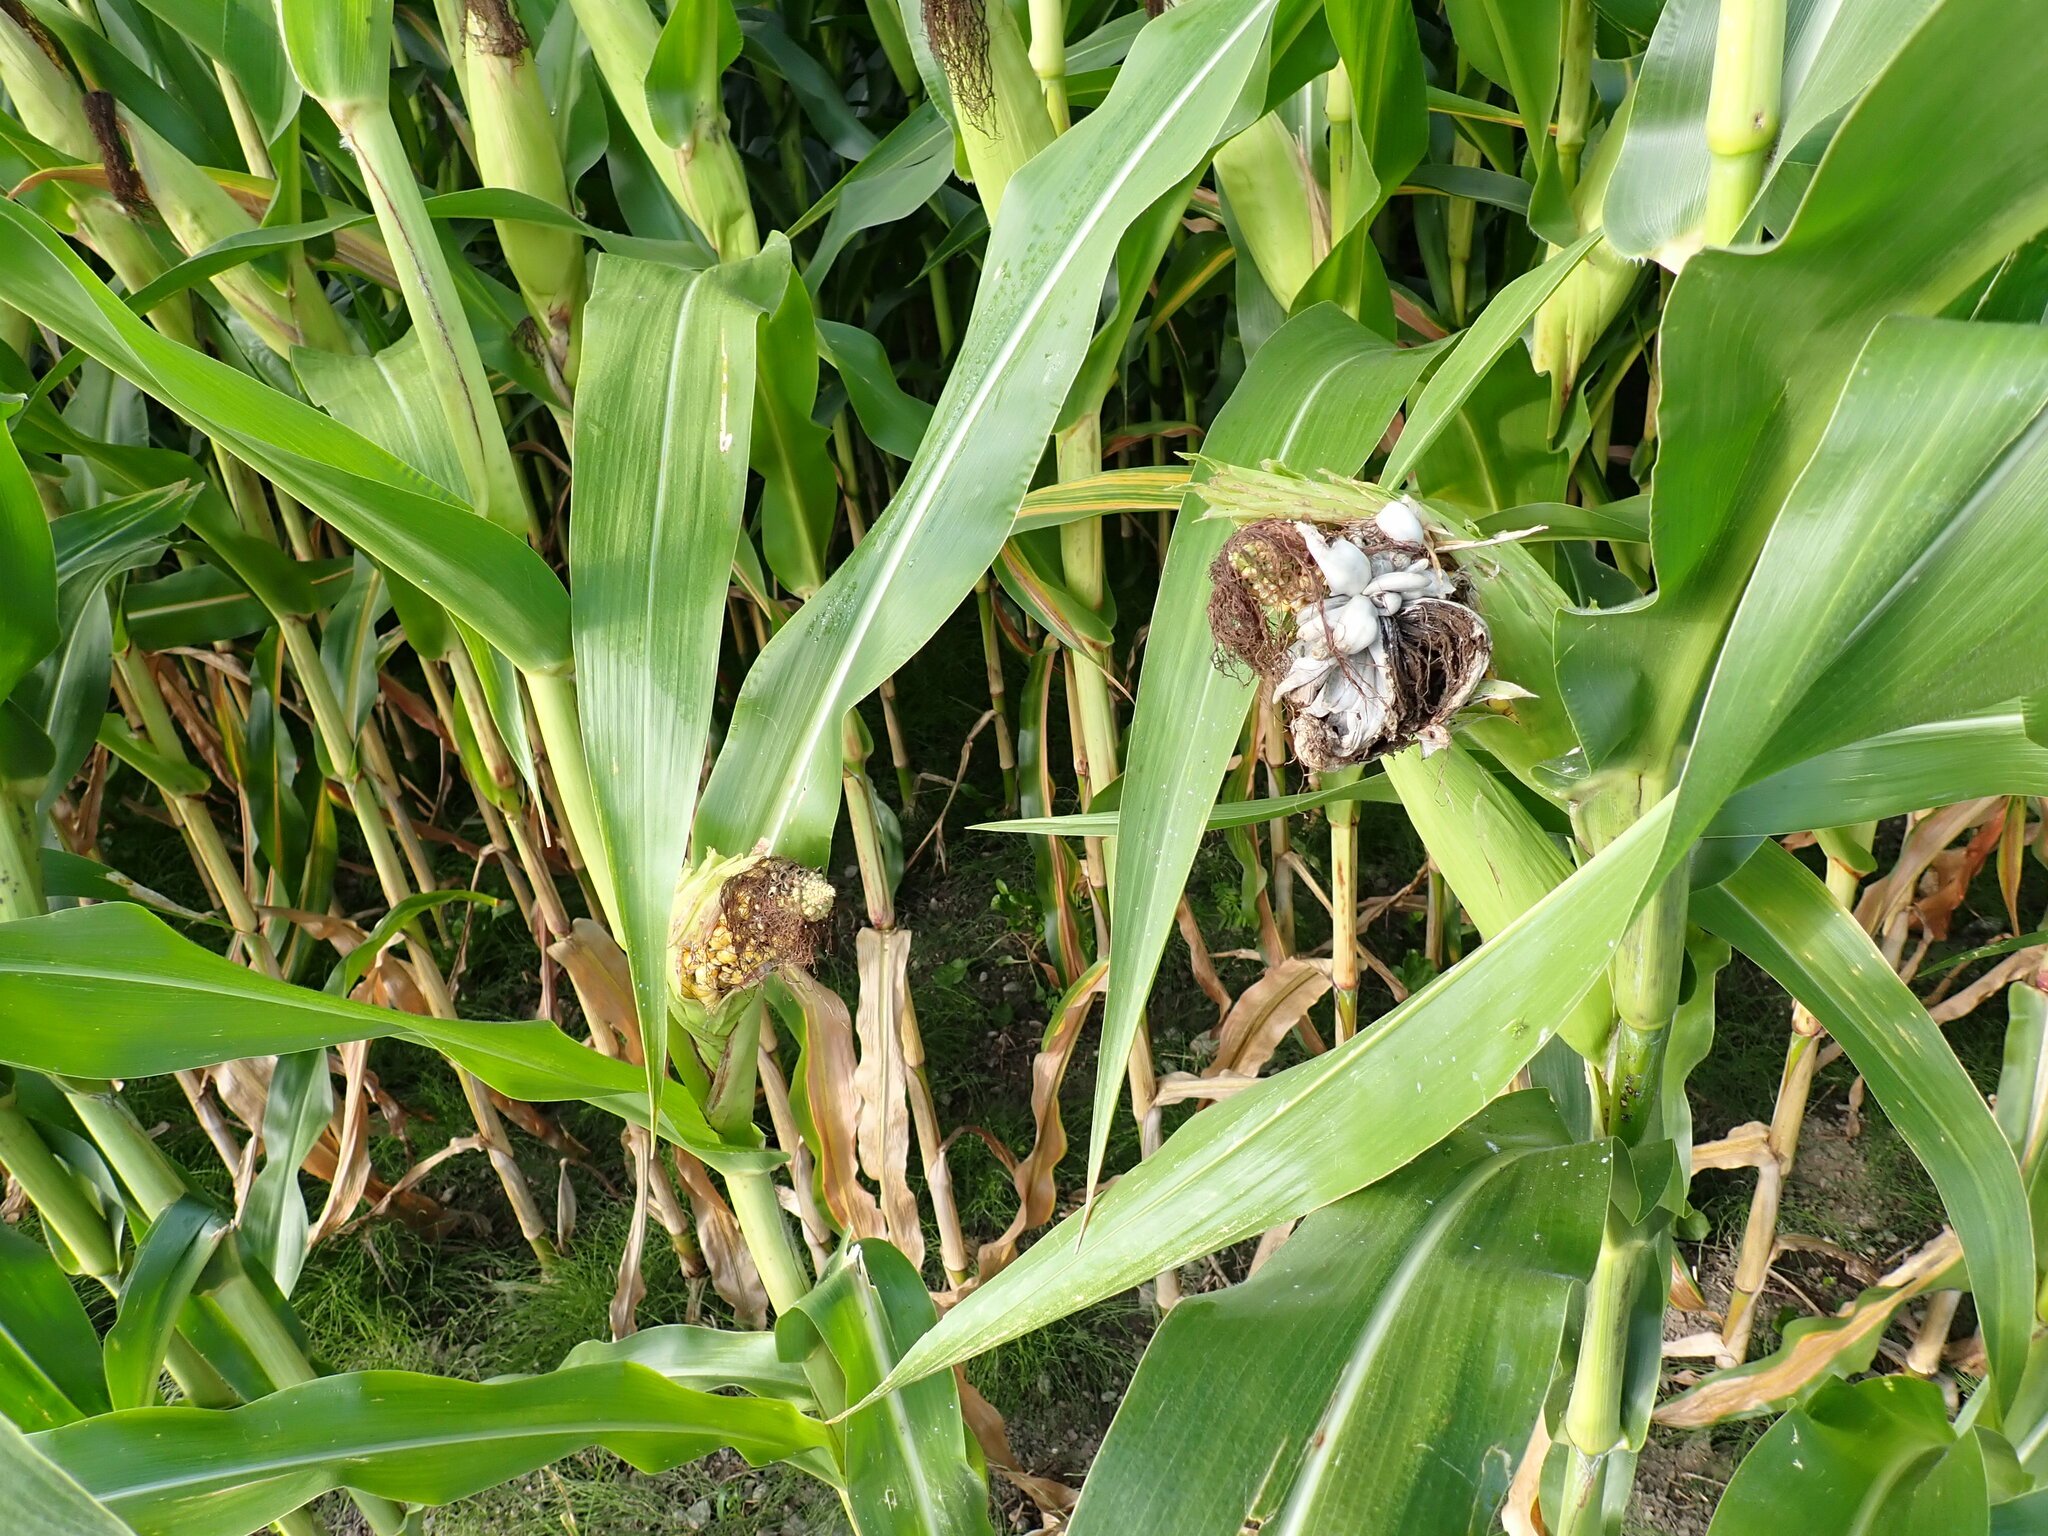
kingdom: Fungi
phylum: Basidiomycota
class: Ustilaginomycetes
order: Ustilaginales
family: Ustilaginaceae
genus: Mycosarcoma
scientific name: Mycosarcoma maydis
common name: Corn smut
